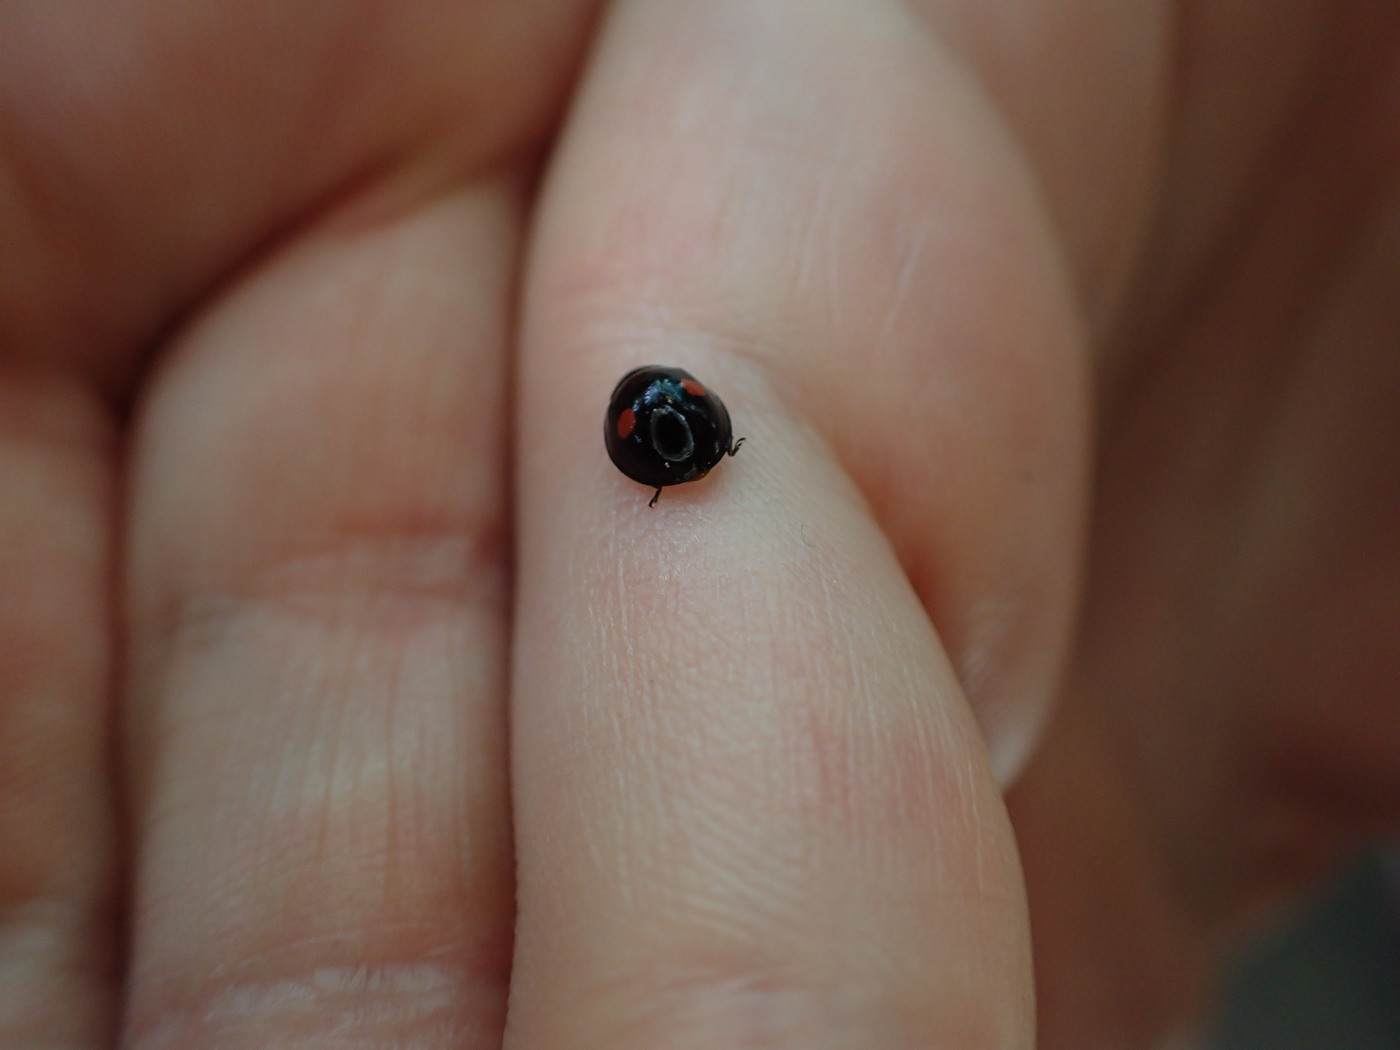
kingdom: Animalia
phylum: Arthropoda
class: Insecta
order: Coleoptera
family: Coccinellidae
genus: Chilocorus
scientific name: Chilocorus stigma
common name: Twicestabbed lady beetle
